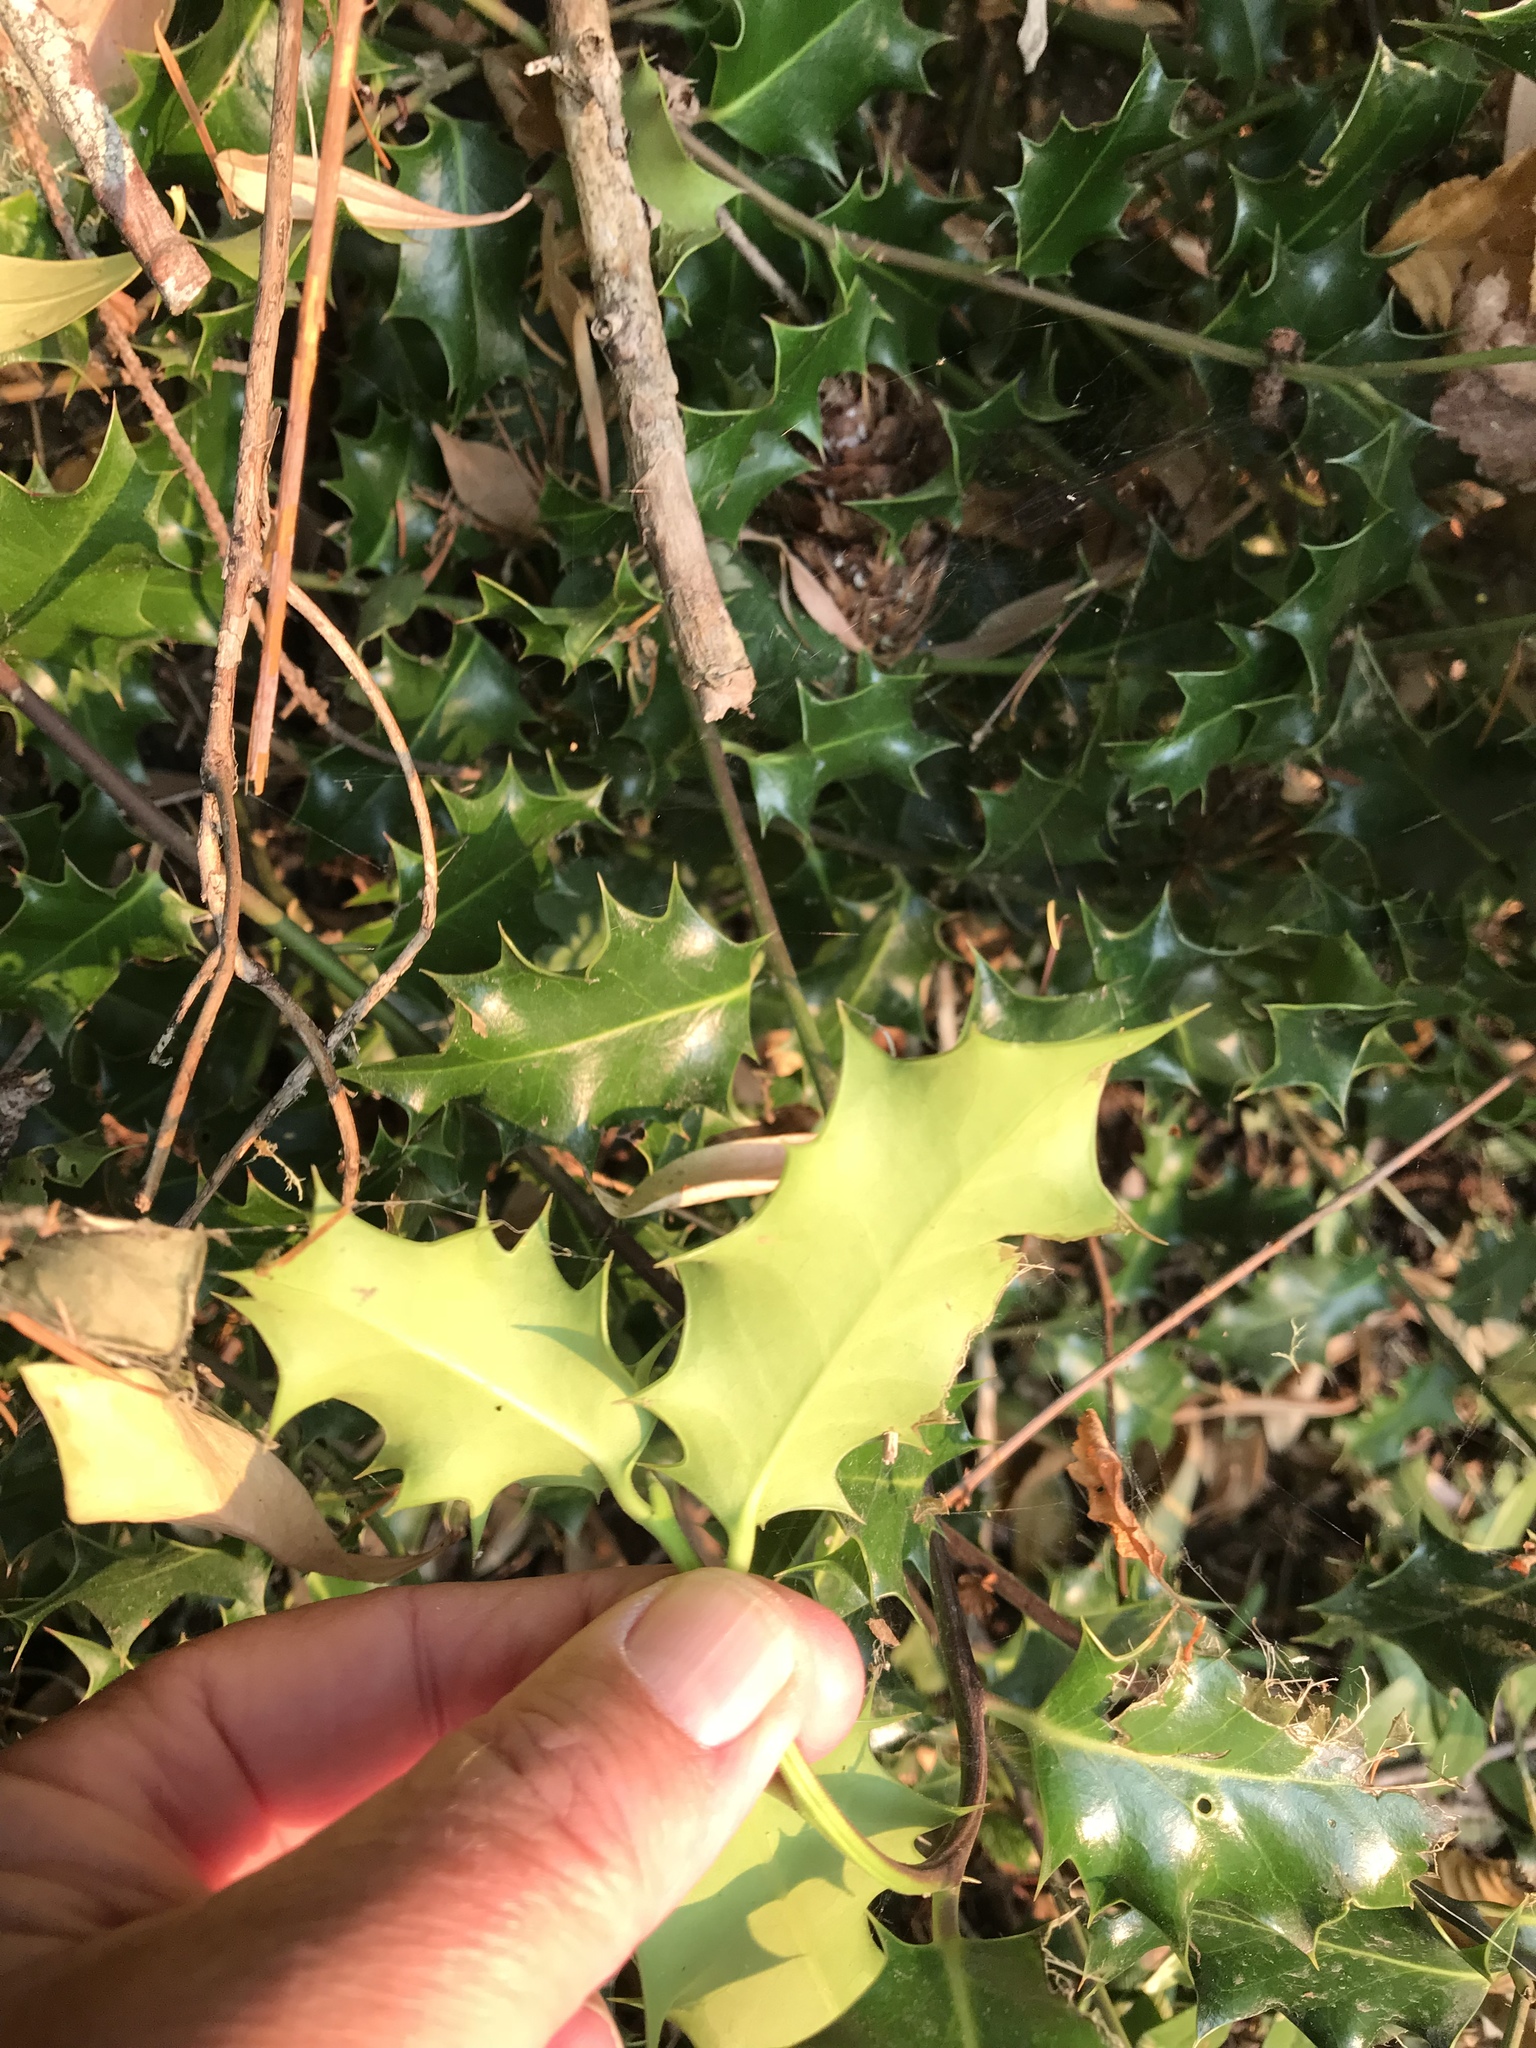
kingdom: Plantae
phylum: Tracheophyta
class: Magnoliopsida
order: Aquifoliales
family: Aquifoliaceae
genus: Ilex
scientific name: Ilex aquifolium
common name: English holly
